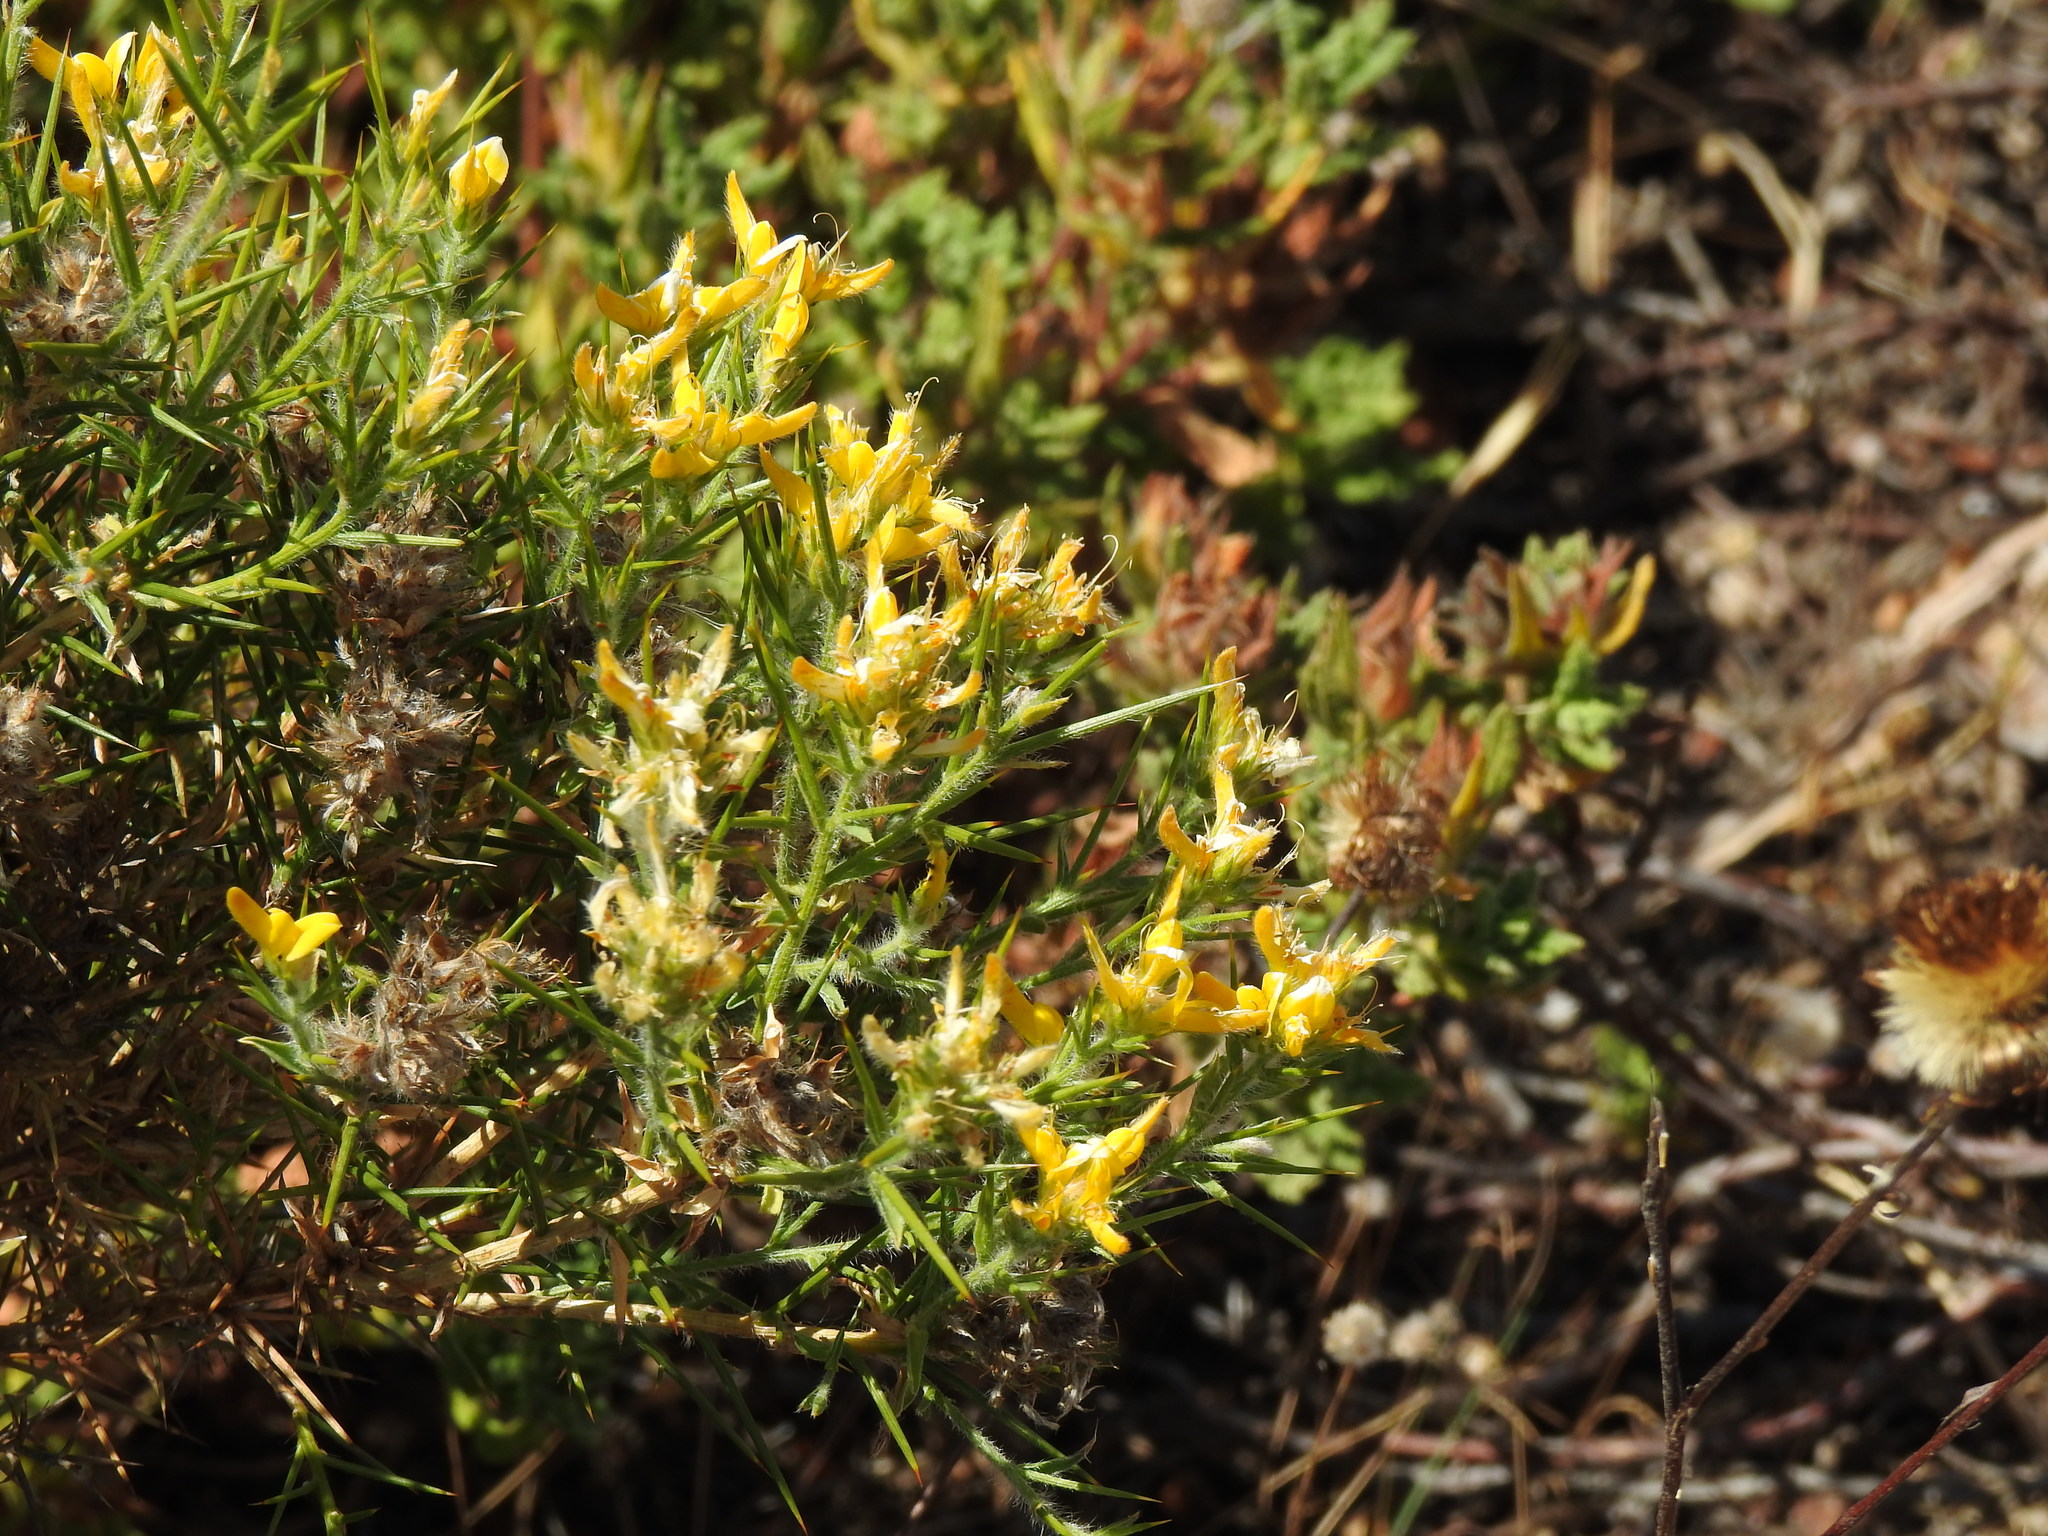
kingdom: Plantae
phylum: Tracheophyta
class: Magnoliopsida
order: Fabales
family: Fabaceae
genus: Genista
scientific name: Genista hirsuta
